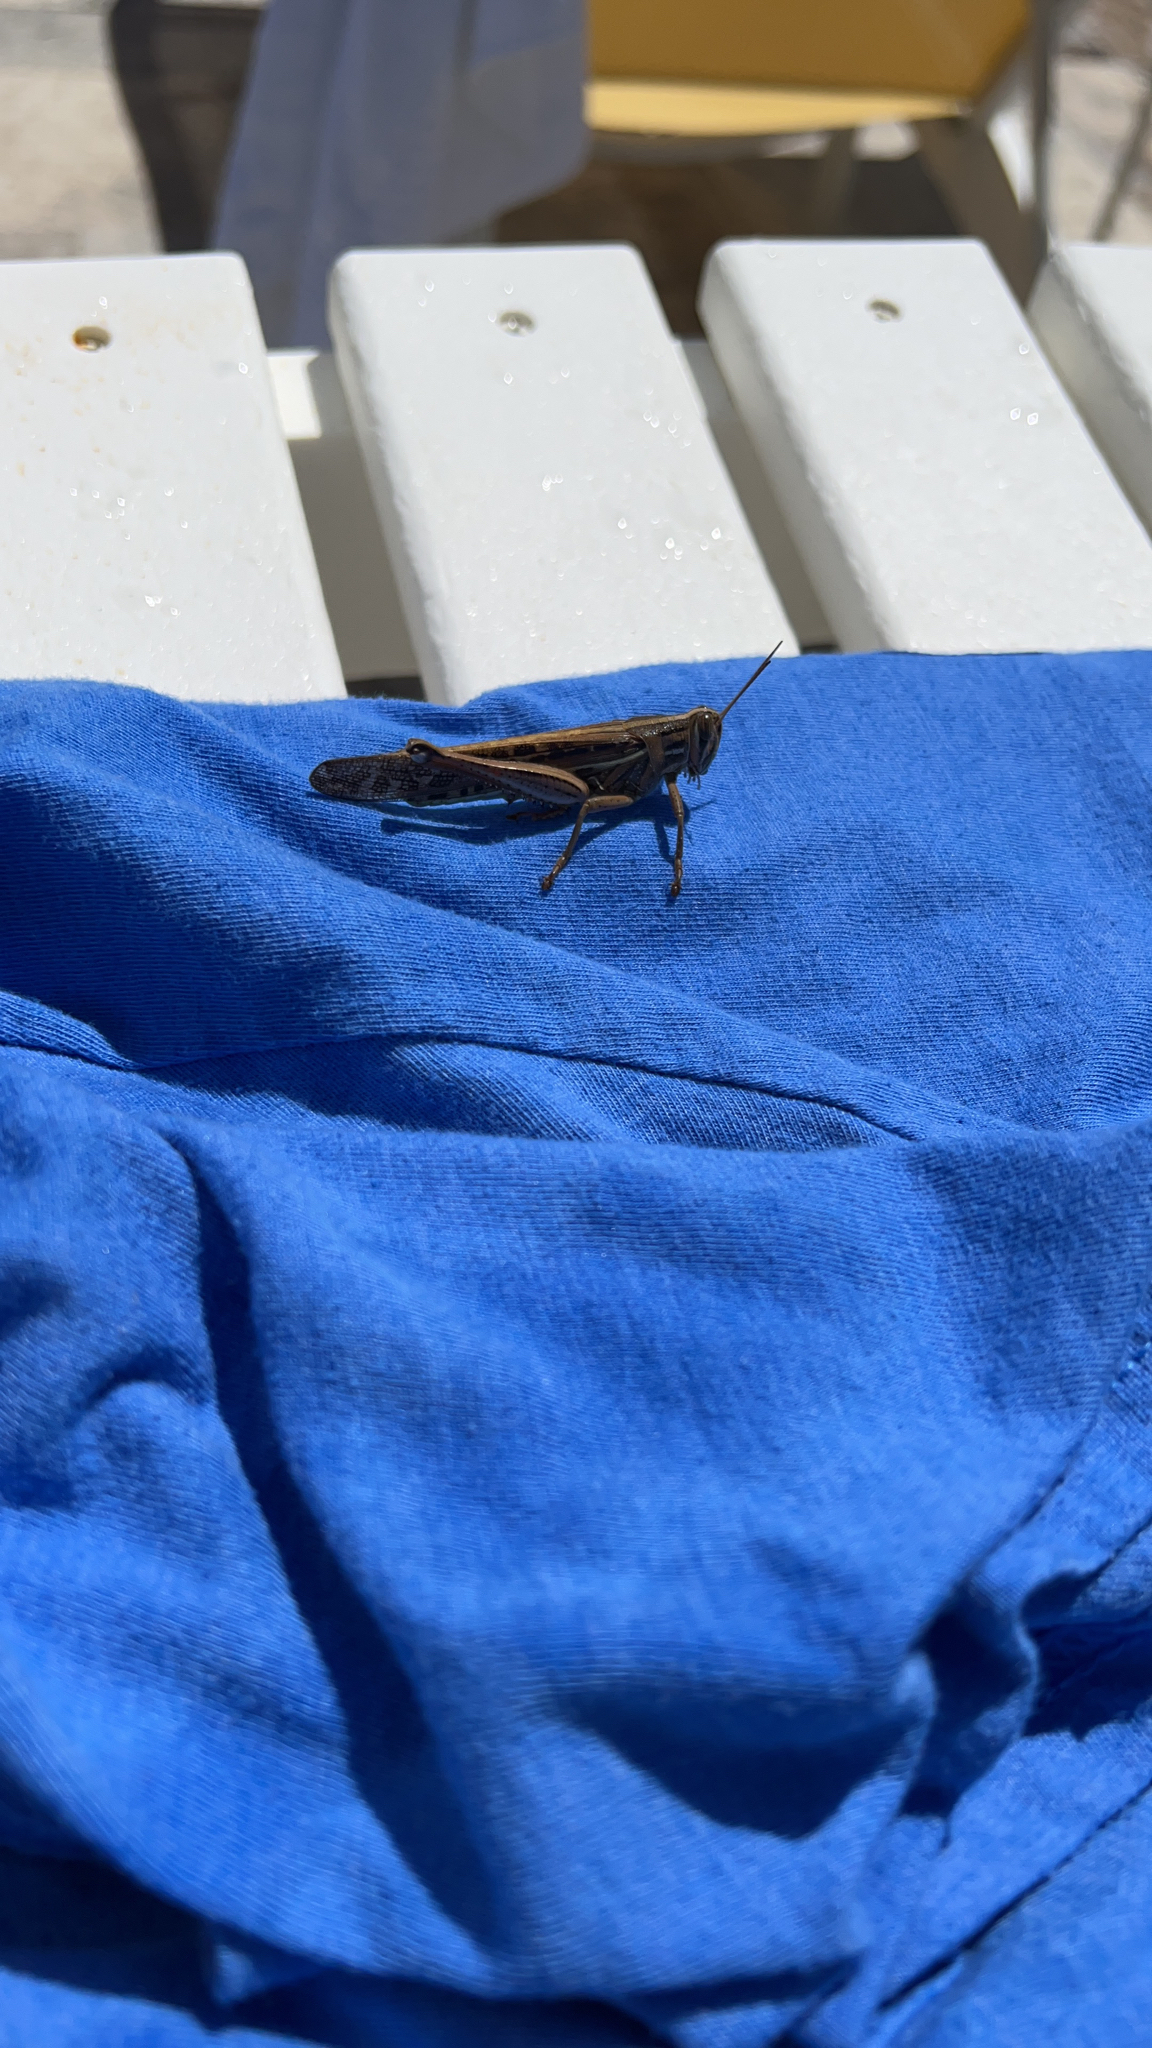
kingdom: Animalia
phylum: Arthropoda
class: Insecta
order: Orthoptera
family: Acrididae
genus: Schistocerca
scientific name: Schistocerca americana
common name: American bird locust
